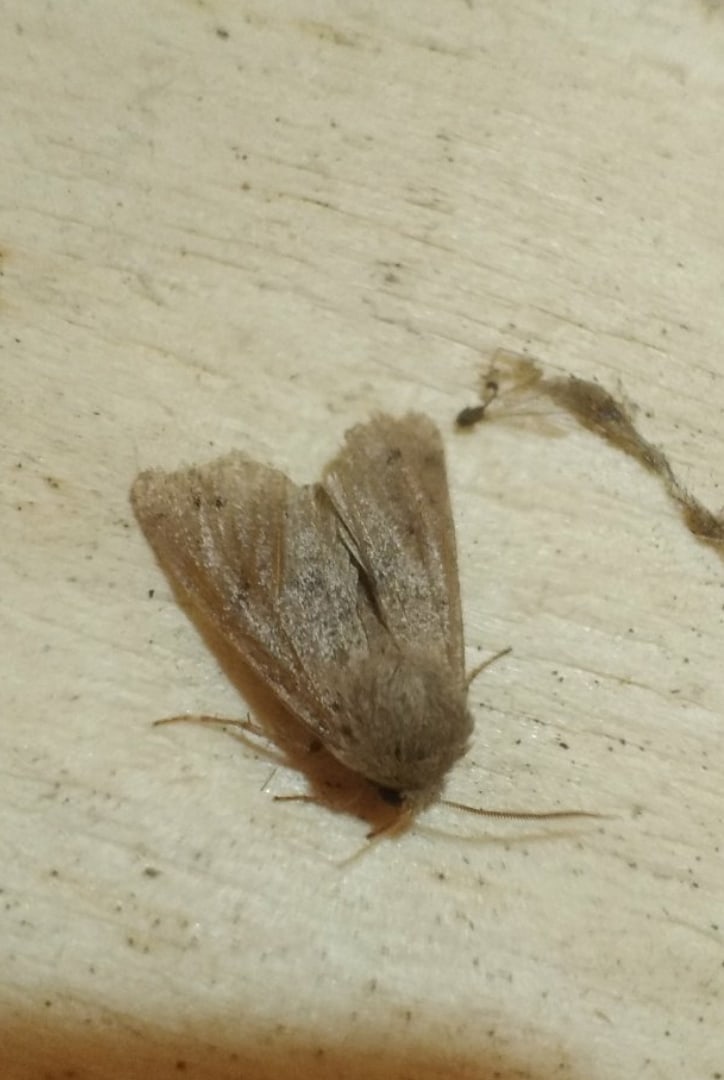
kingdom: Animalia
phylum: Arthropoda
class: Insecta
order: Lepidoptera
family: Noctuidae
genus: Anorthoa
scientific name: Anorthoa munda
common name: Twin-spotted quaker
